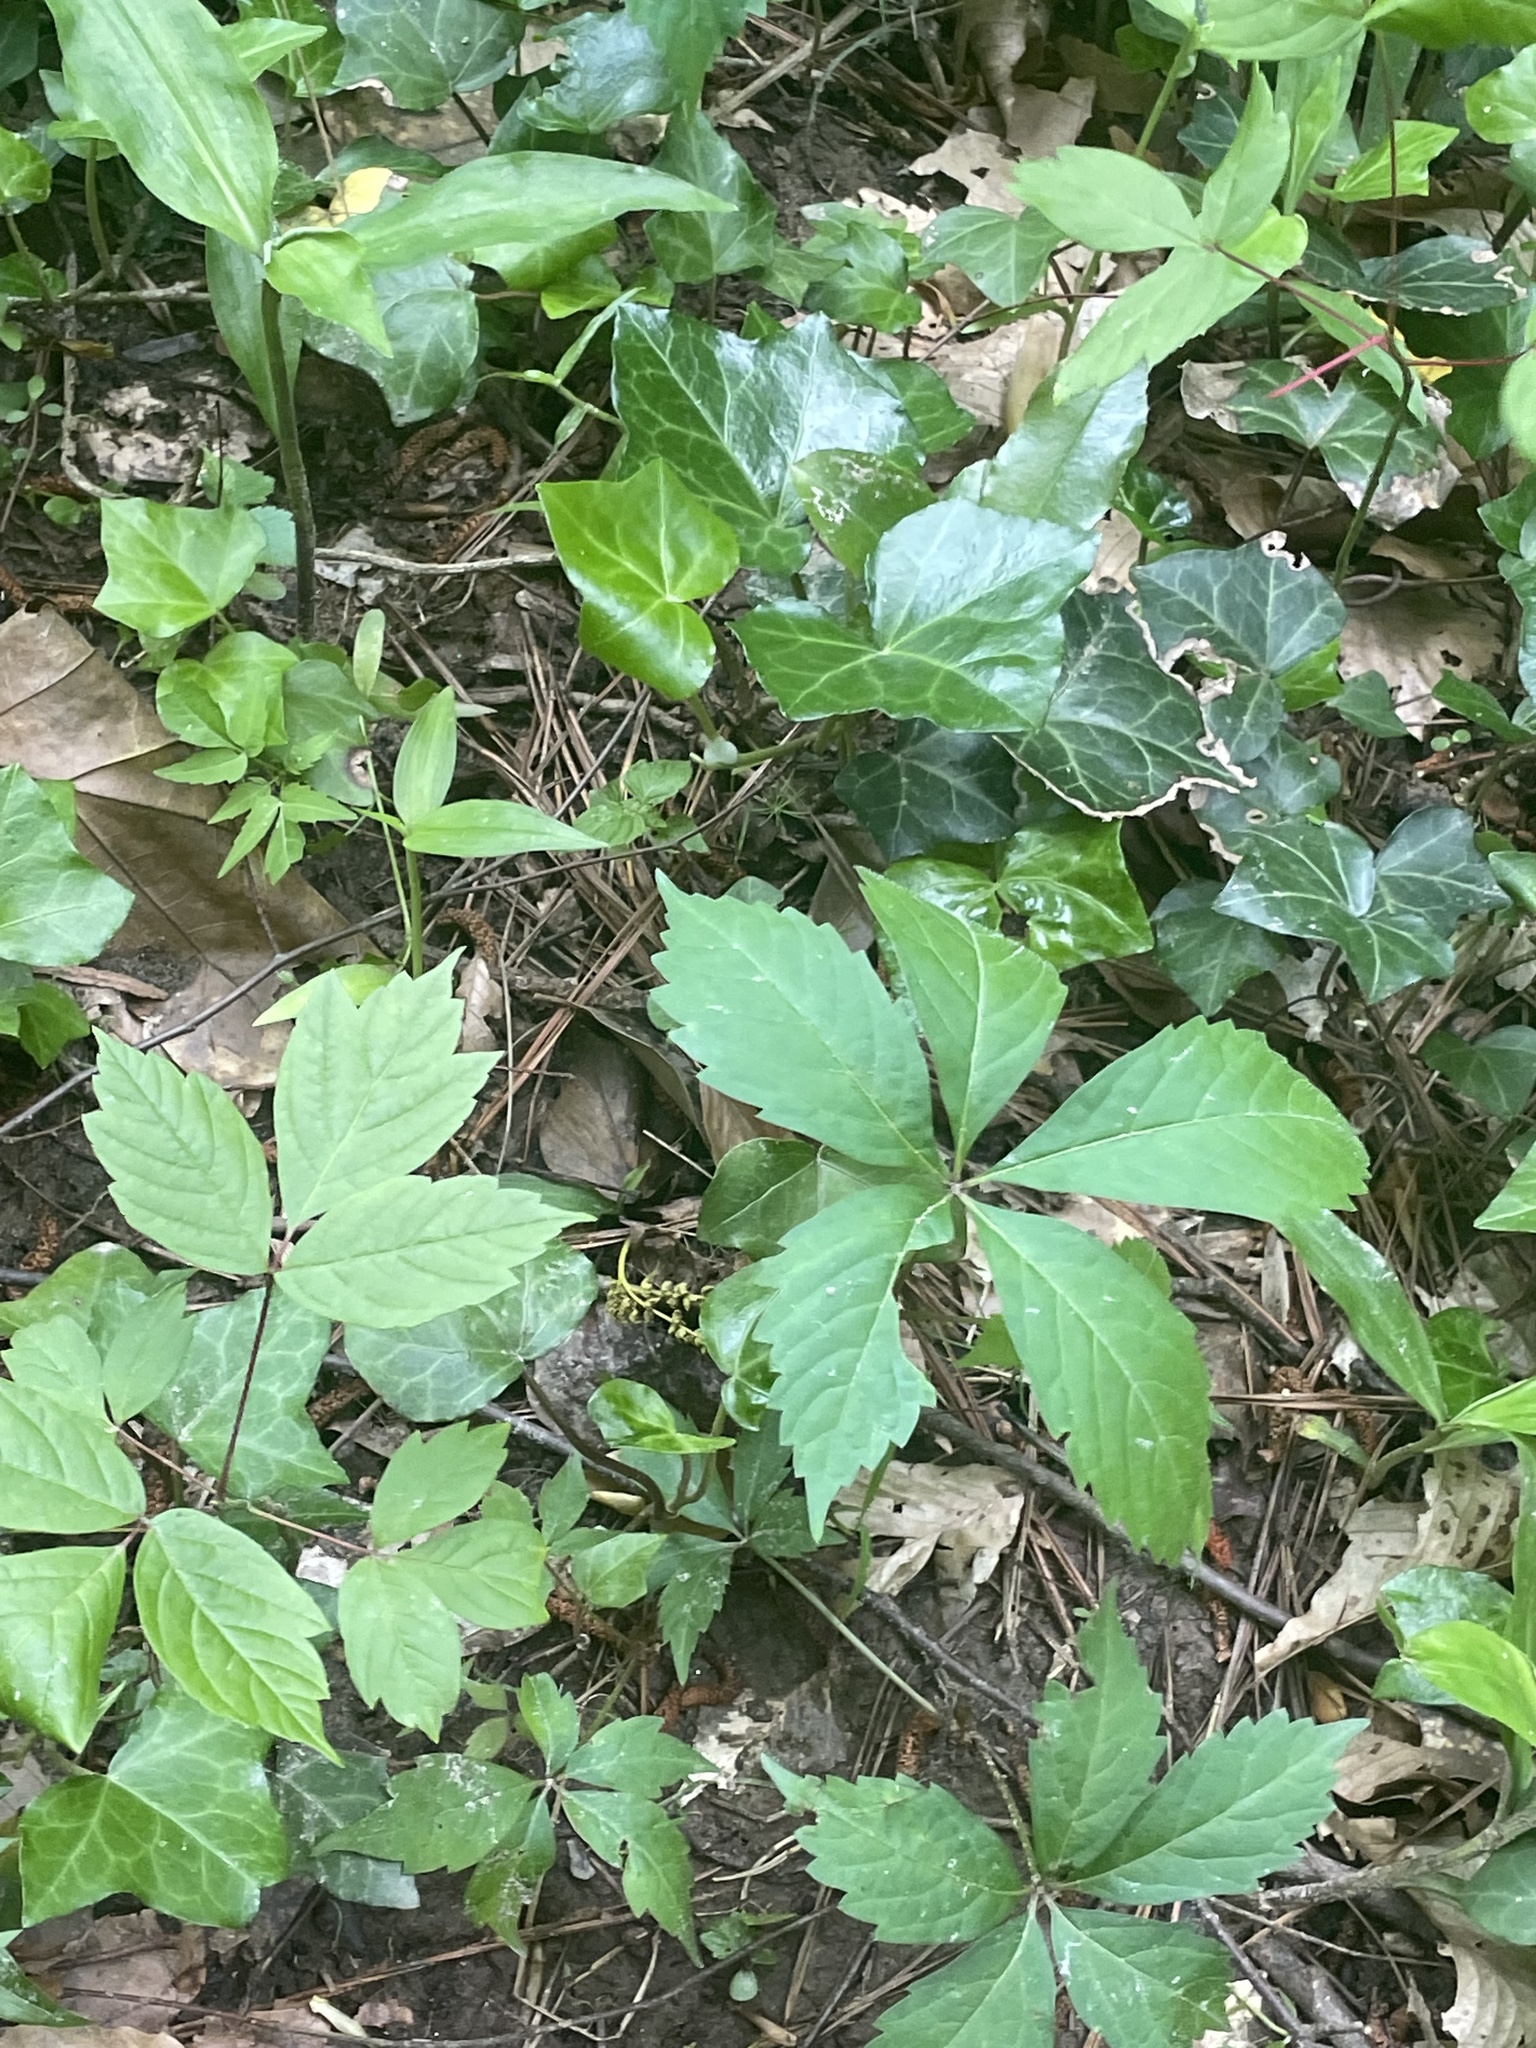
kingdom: Plantae
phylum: Tracheophyta
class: Magnoliopsida
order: Vitales
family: Vitaceae
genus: Parthenocissus
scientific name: Parthenocissus quinquefolia
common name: Virginia-creeper
